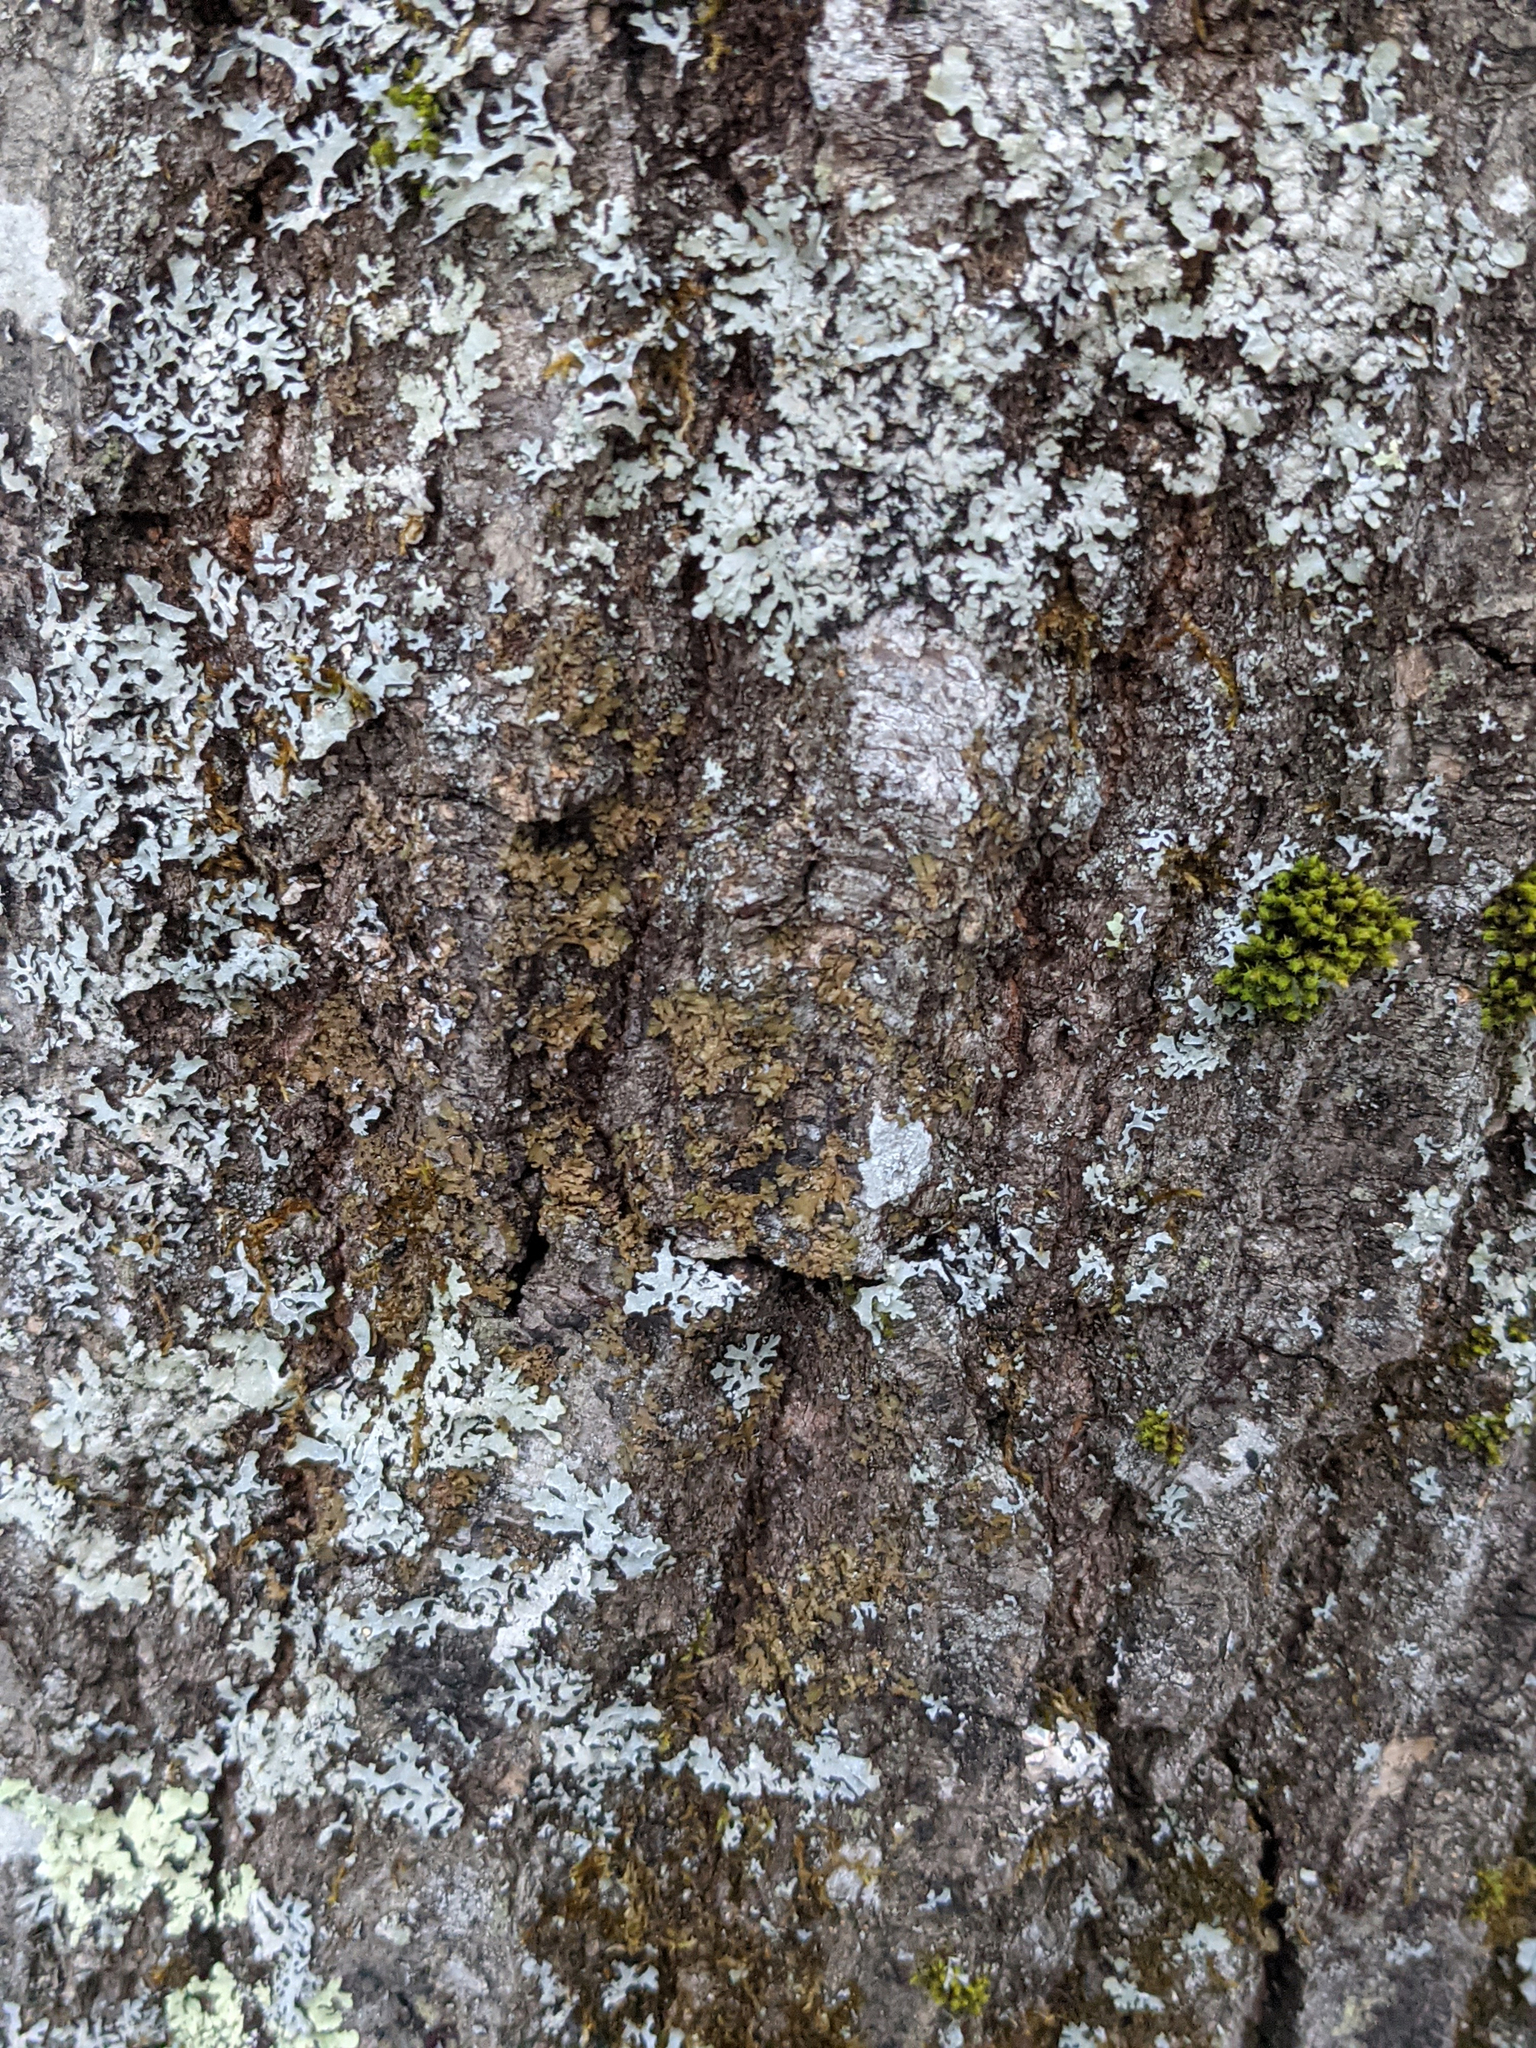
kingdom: Plantae
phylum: Bryophyta
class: Bryopsida
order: Orthotrichales
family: Orthotrichaceae
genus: Ulota
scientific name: Ulota crispa
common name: Crisped pincushion moss
